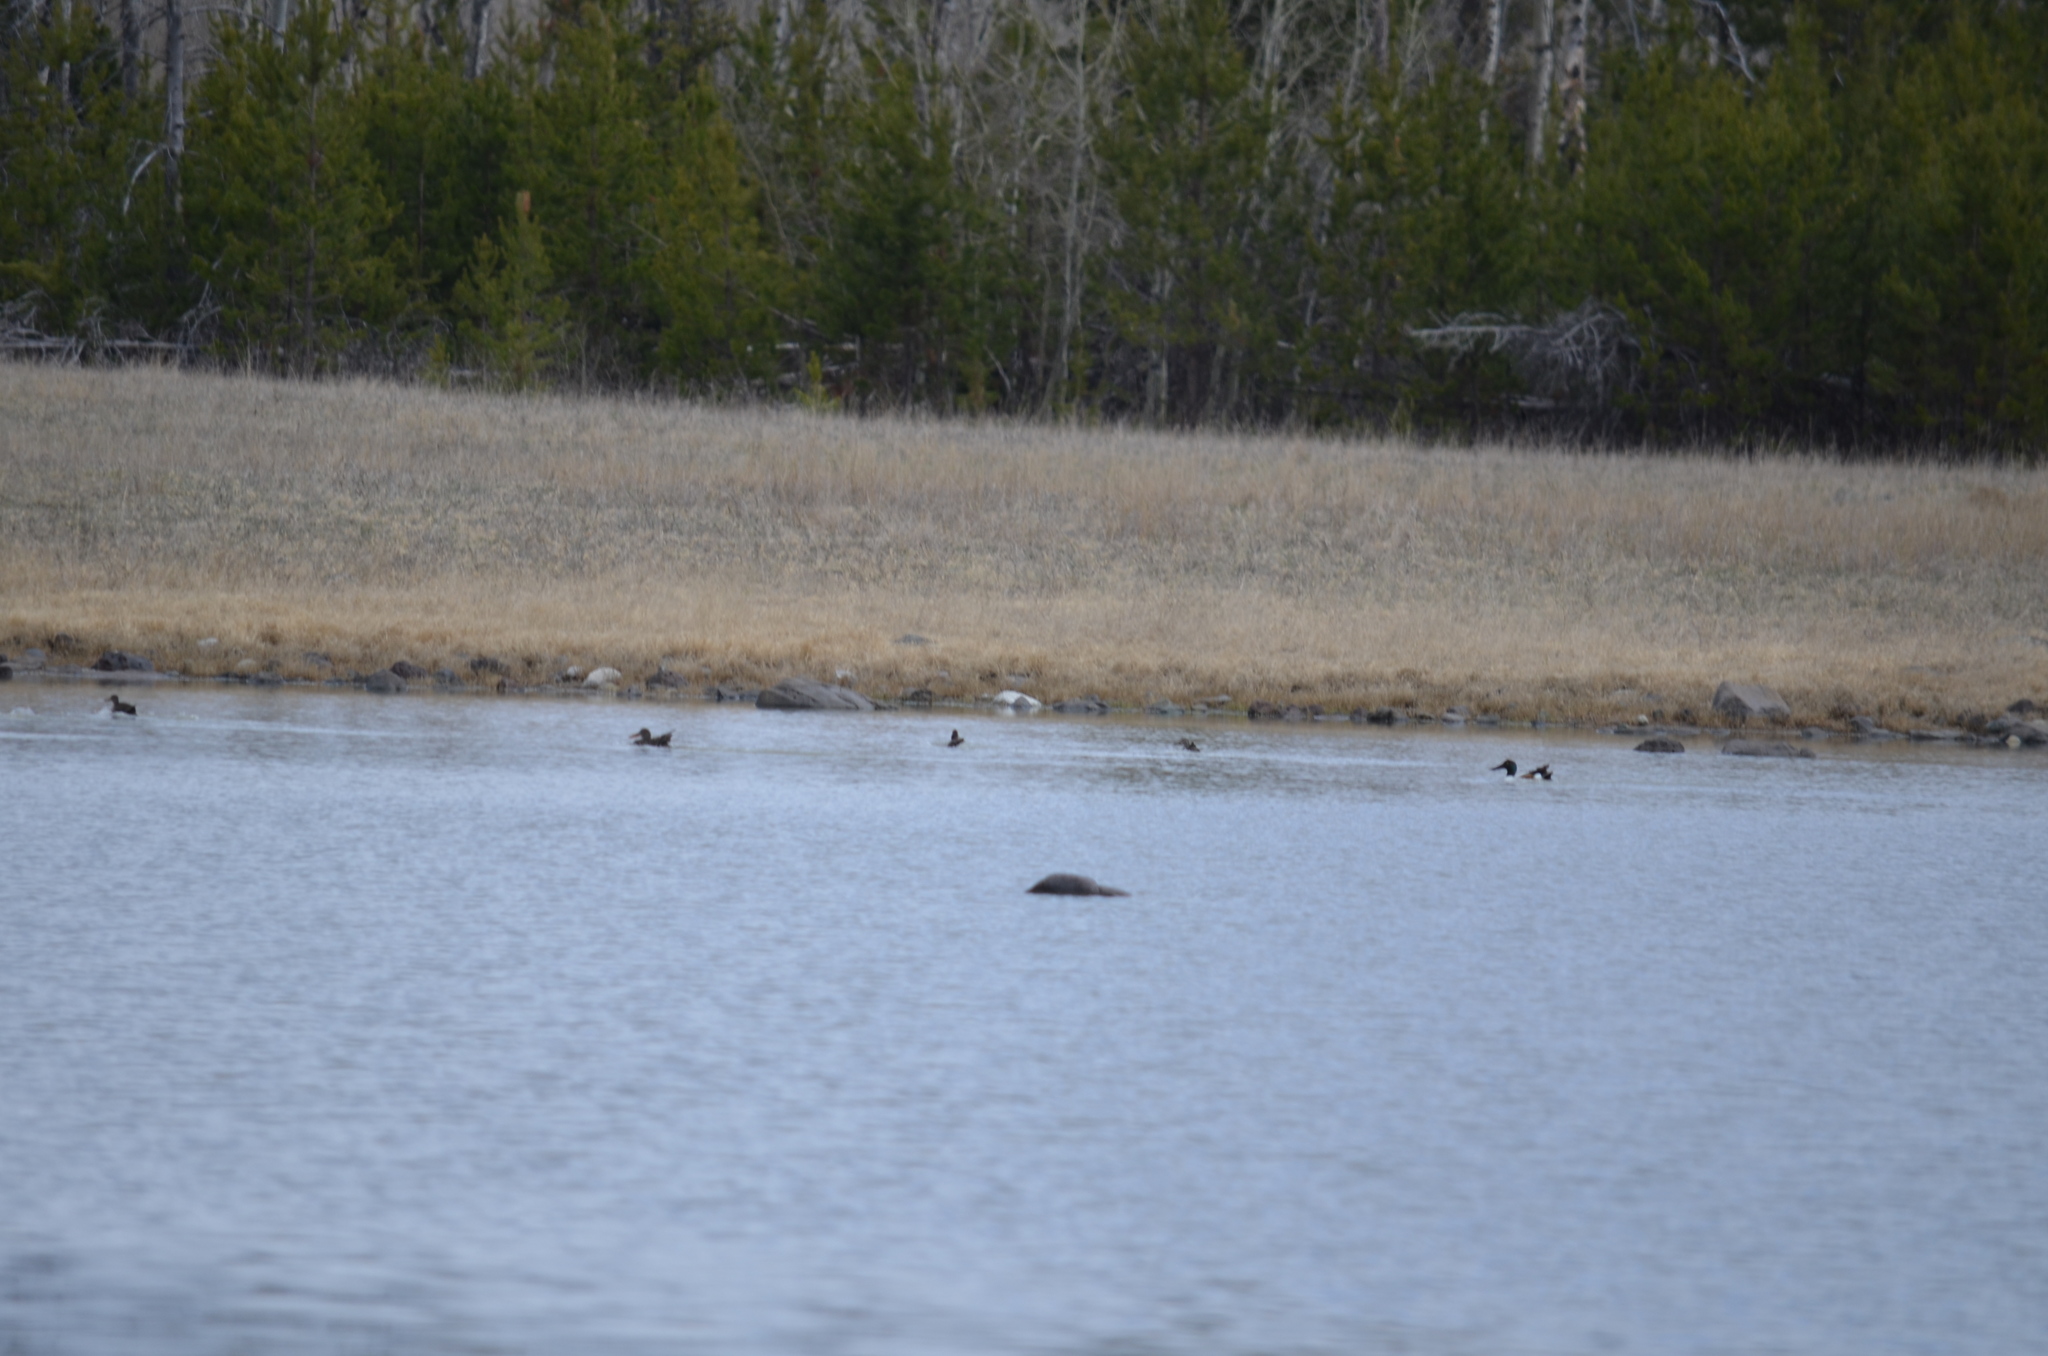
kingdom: Animalia
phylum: Chordata
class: Aves
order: Anseriformes
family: Anatidae
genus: Spatula
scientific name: Spatula clypeata
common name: Northern shoveler
